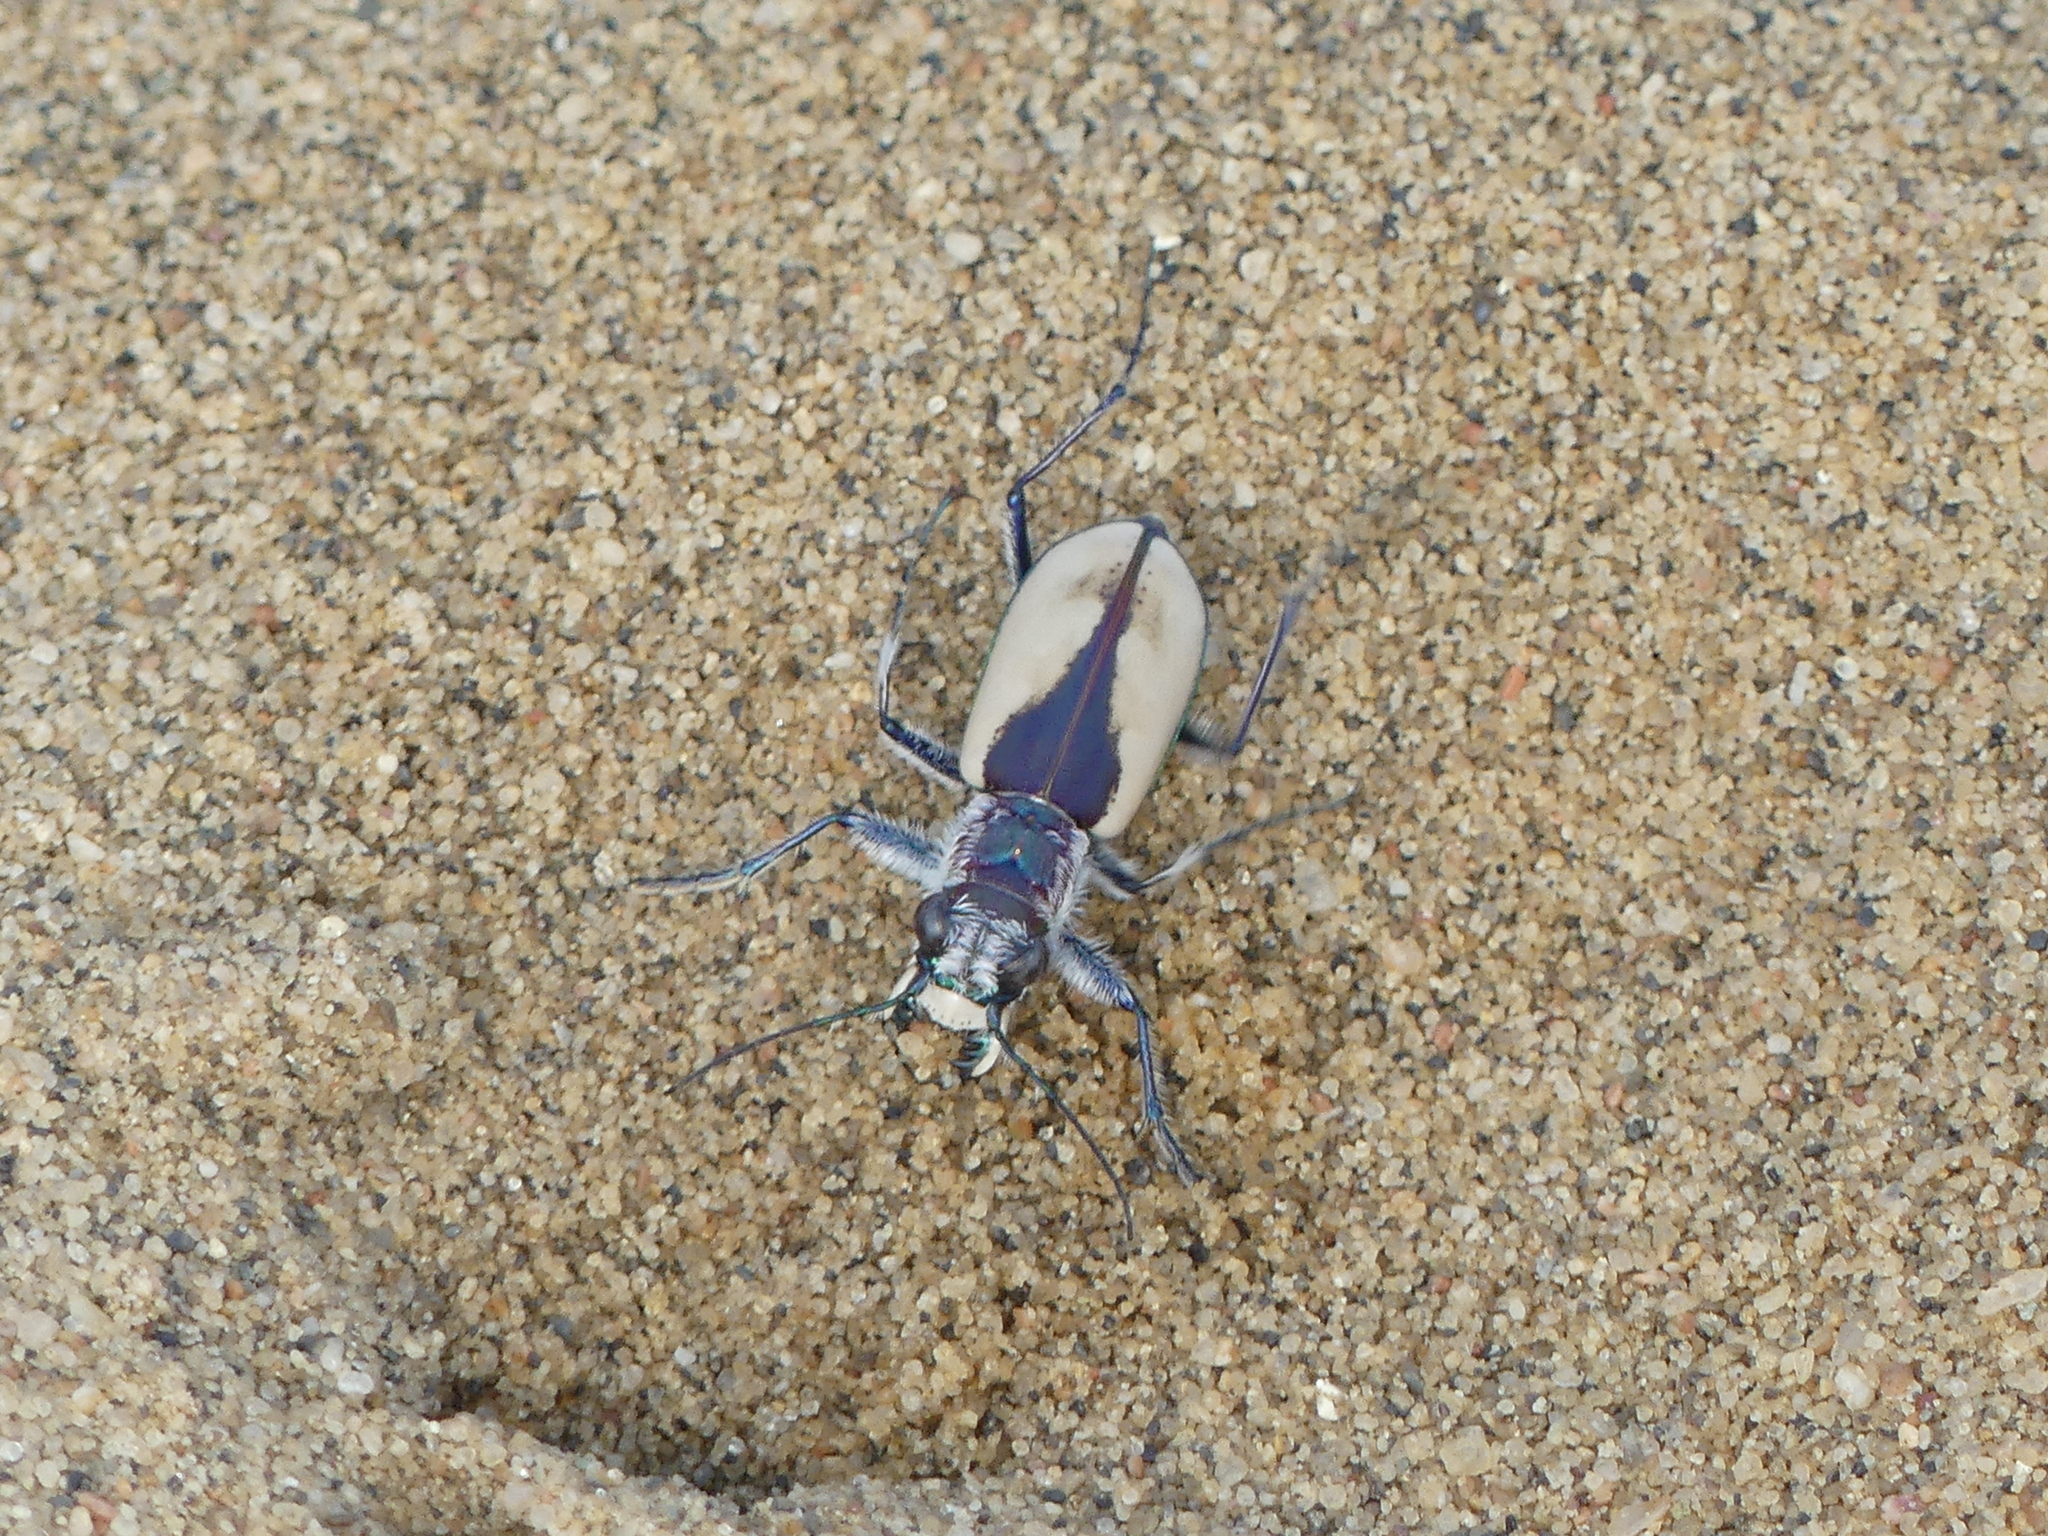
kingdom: Animalia
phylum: Arthropoda
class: Insecta
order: Coleoptera
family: Carabidae
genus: Cicindela
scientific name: Cicindela formosa
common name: Big sand tiger beetle
